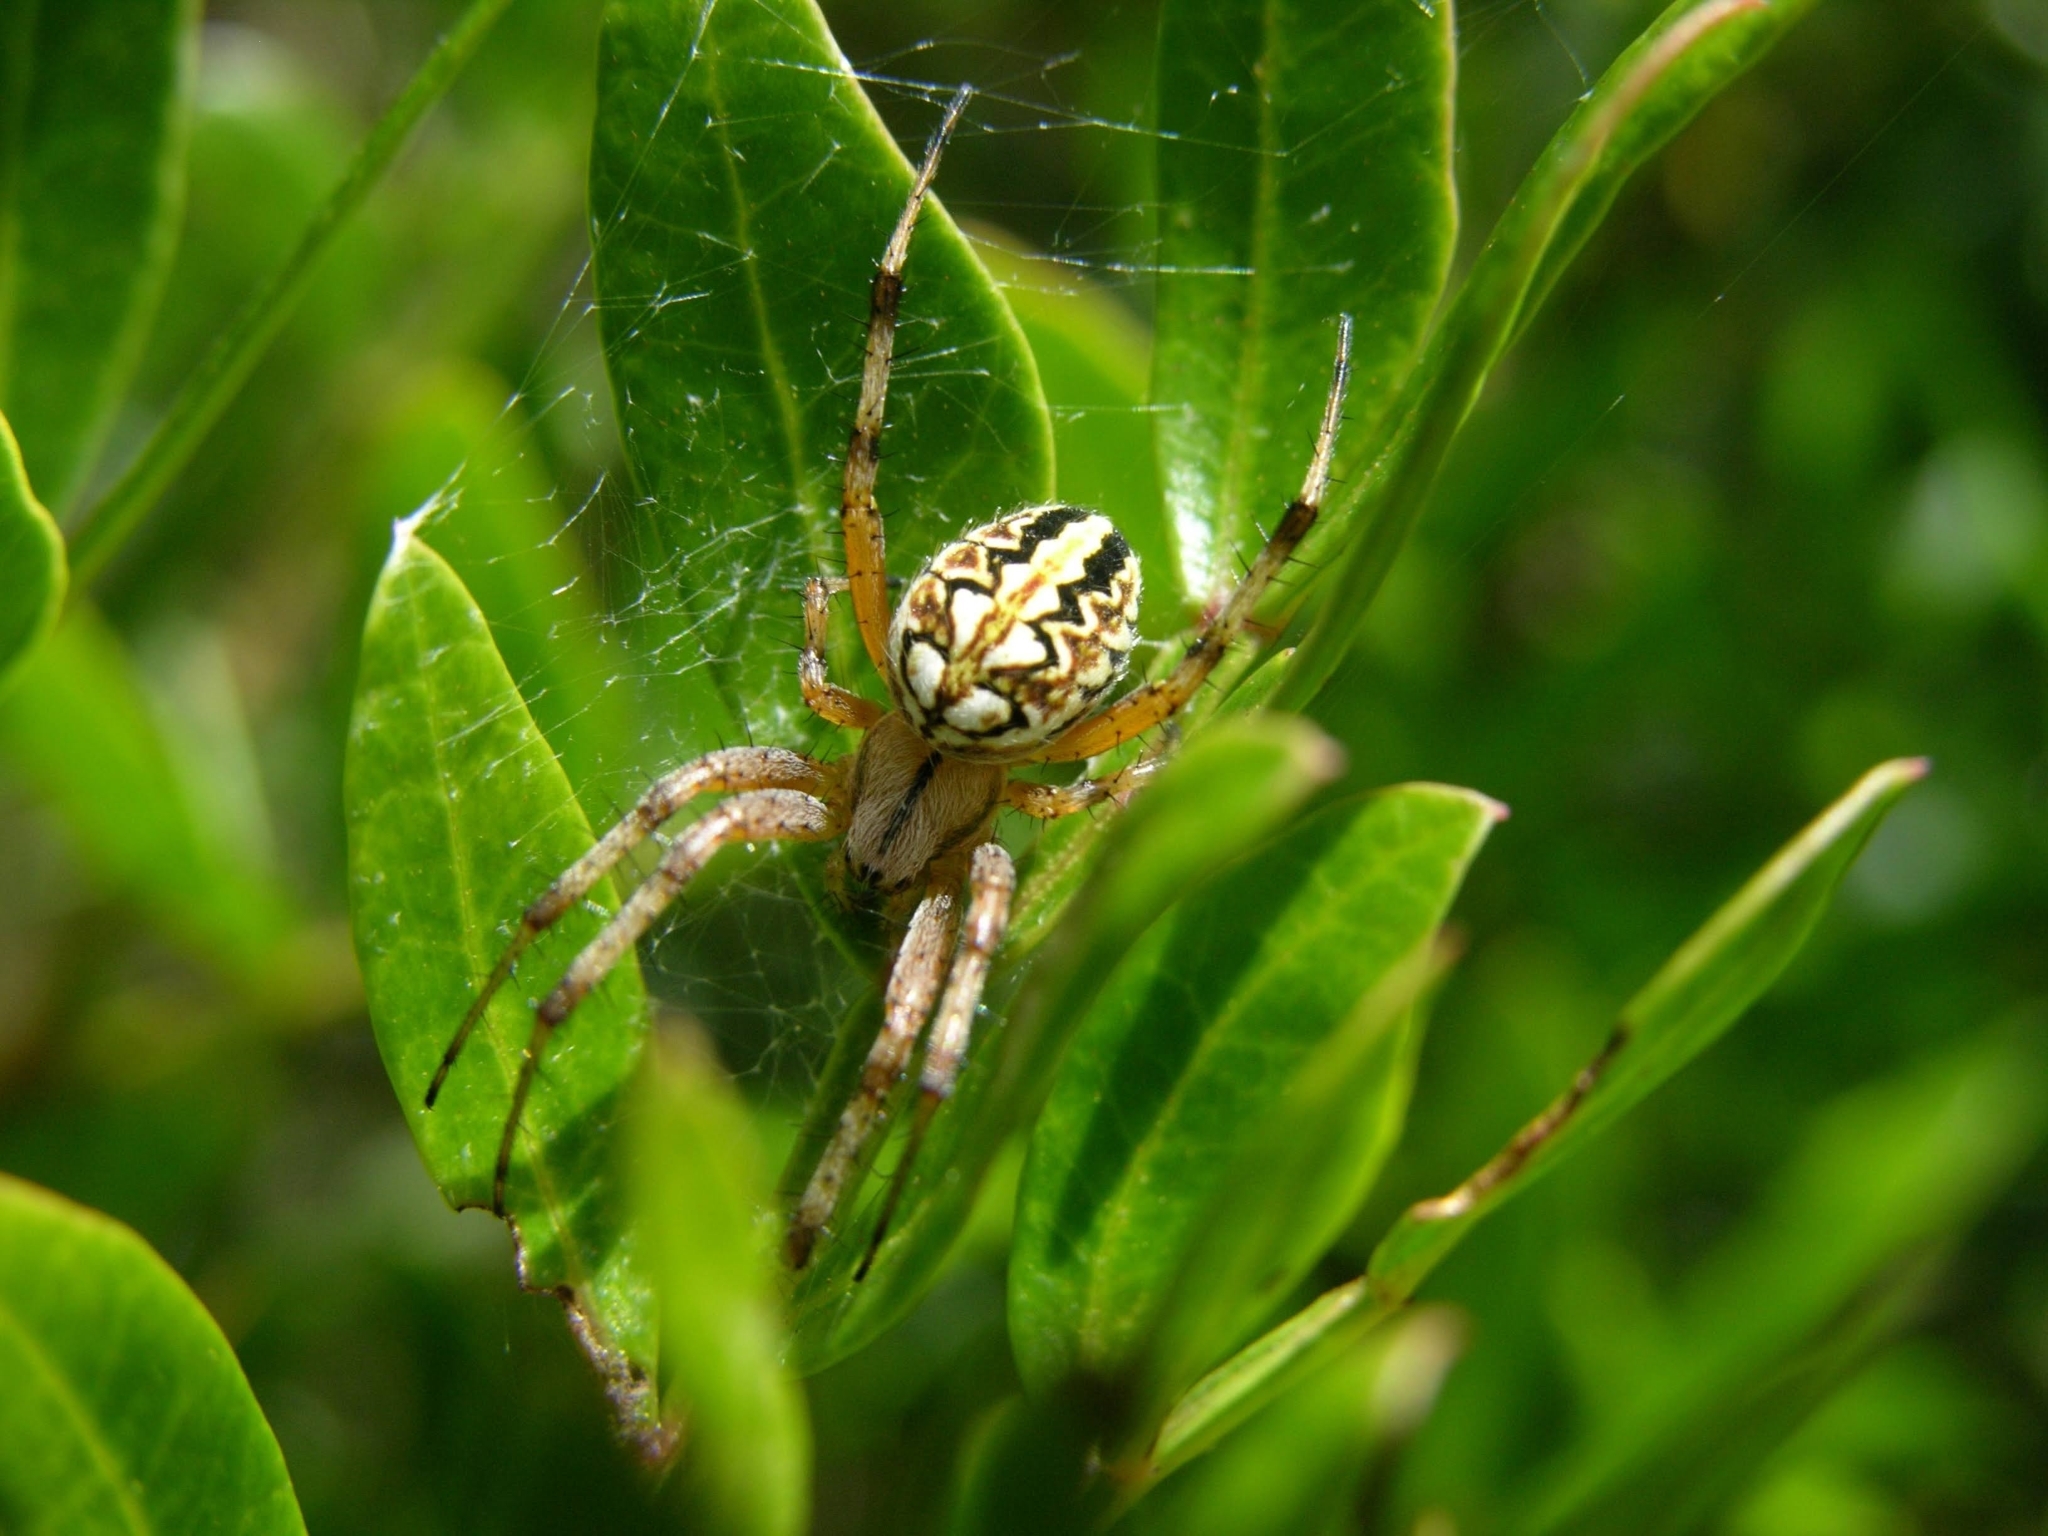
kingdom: Animalia
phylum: Arthropoda
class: Arachnida
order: Araneae
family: Araneidae
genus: Neoscona
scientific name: Neoscona adianta
